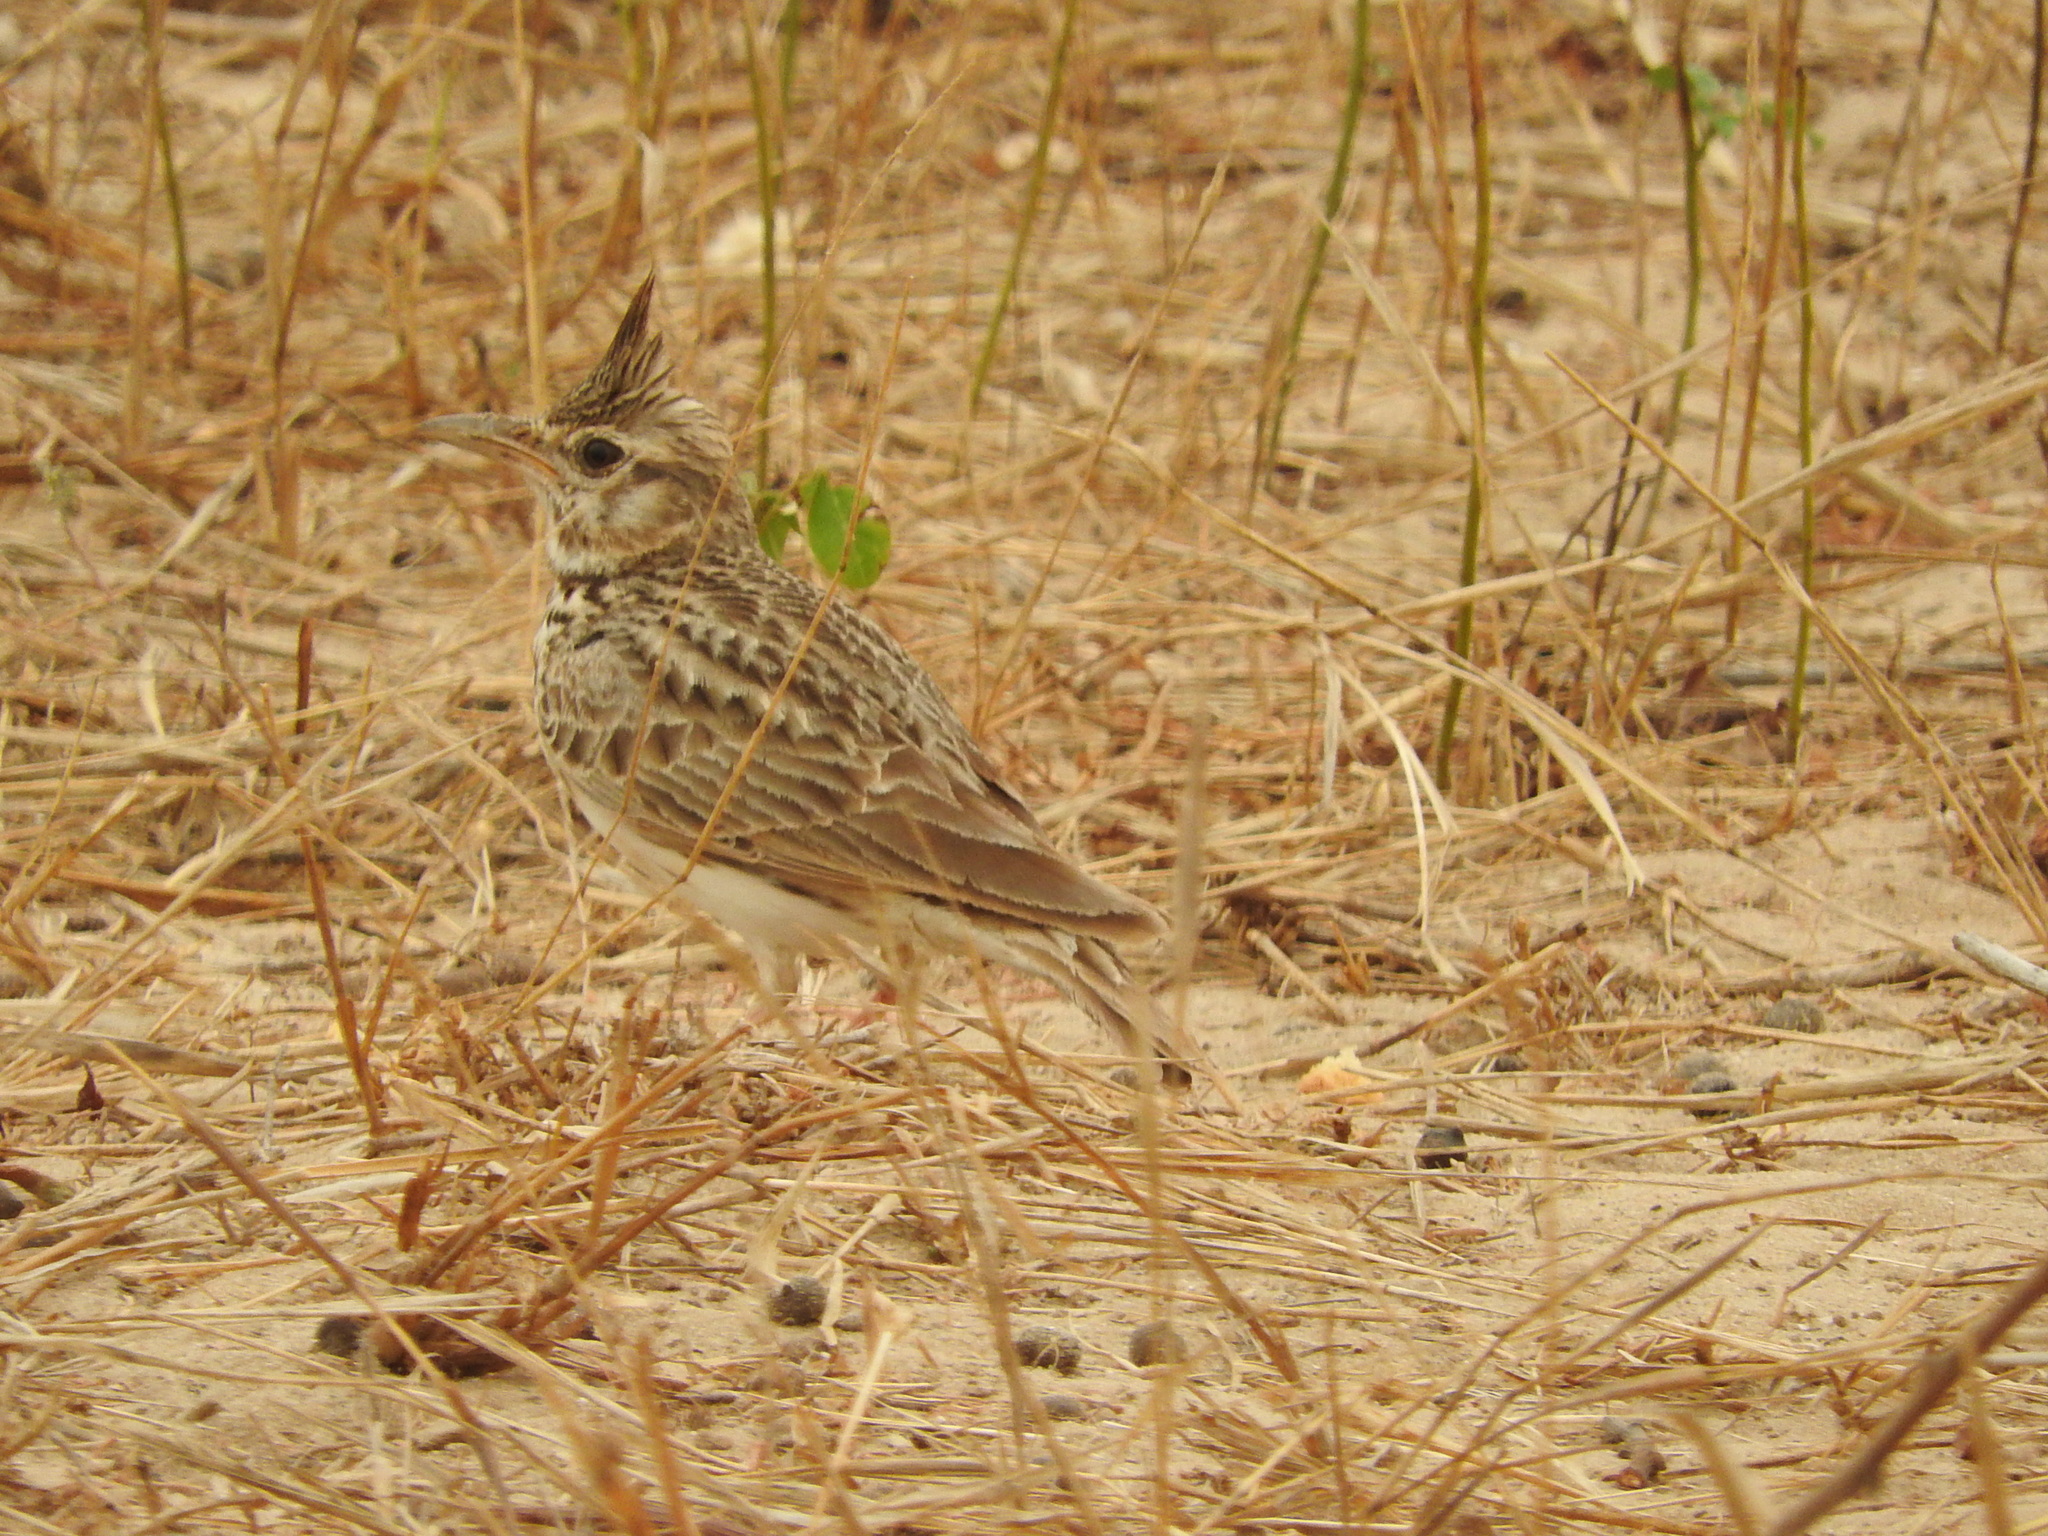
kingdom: Animalia
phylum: Chordata
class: Aves
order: Passeriformes
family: Alaudidae
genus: Galerida
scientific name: Galerida cristata
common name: Crested lark
